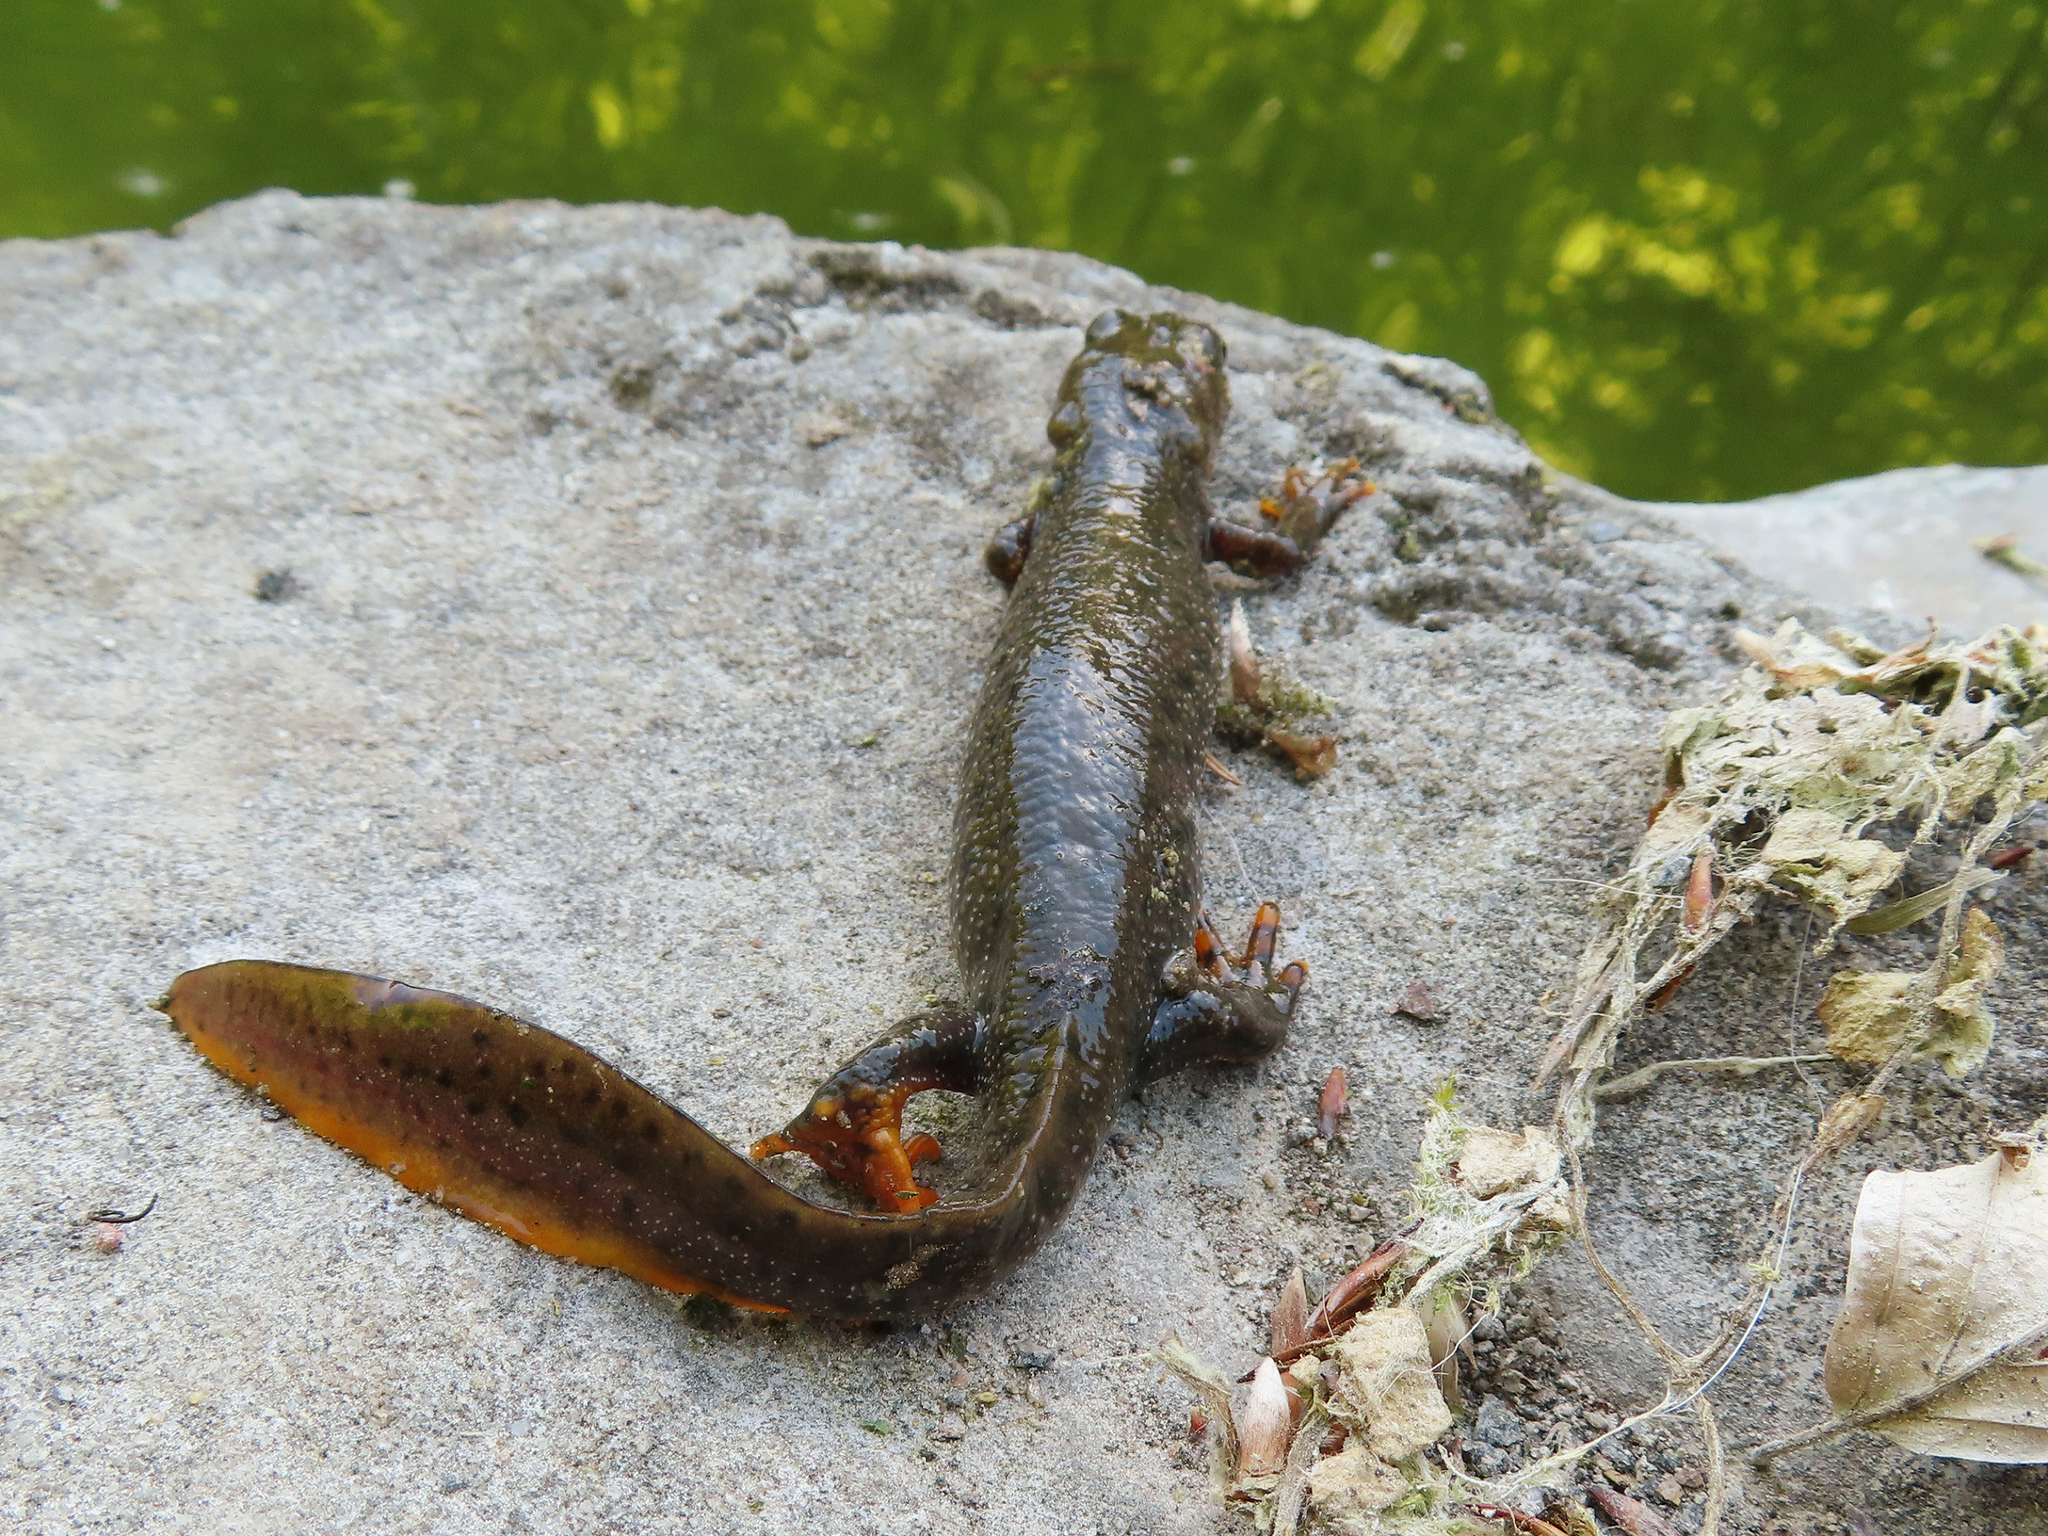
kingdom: Animalia
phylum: Chordata
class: Amphibia
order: Caudata
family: Salamandridae
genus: Triturus
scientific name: Triturus cristatus
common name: Crested newt
